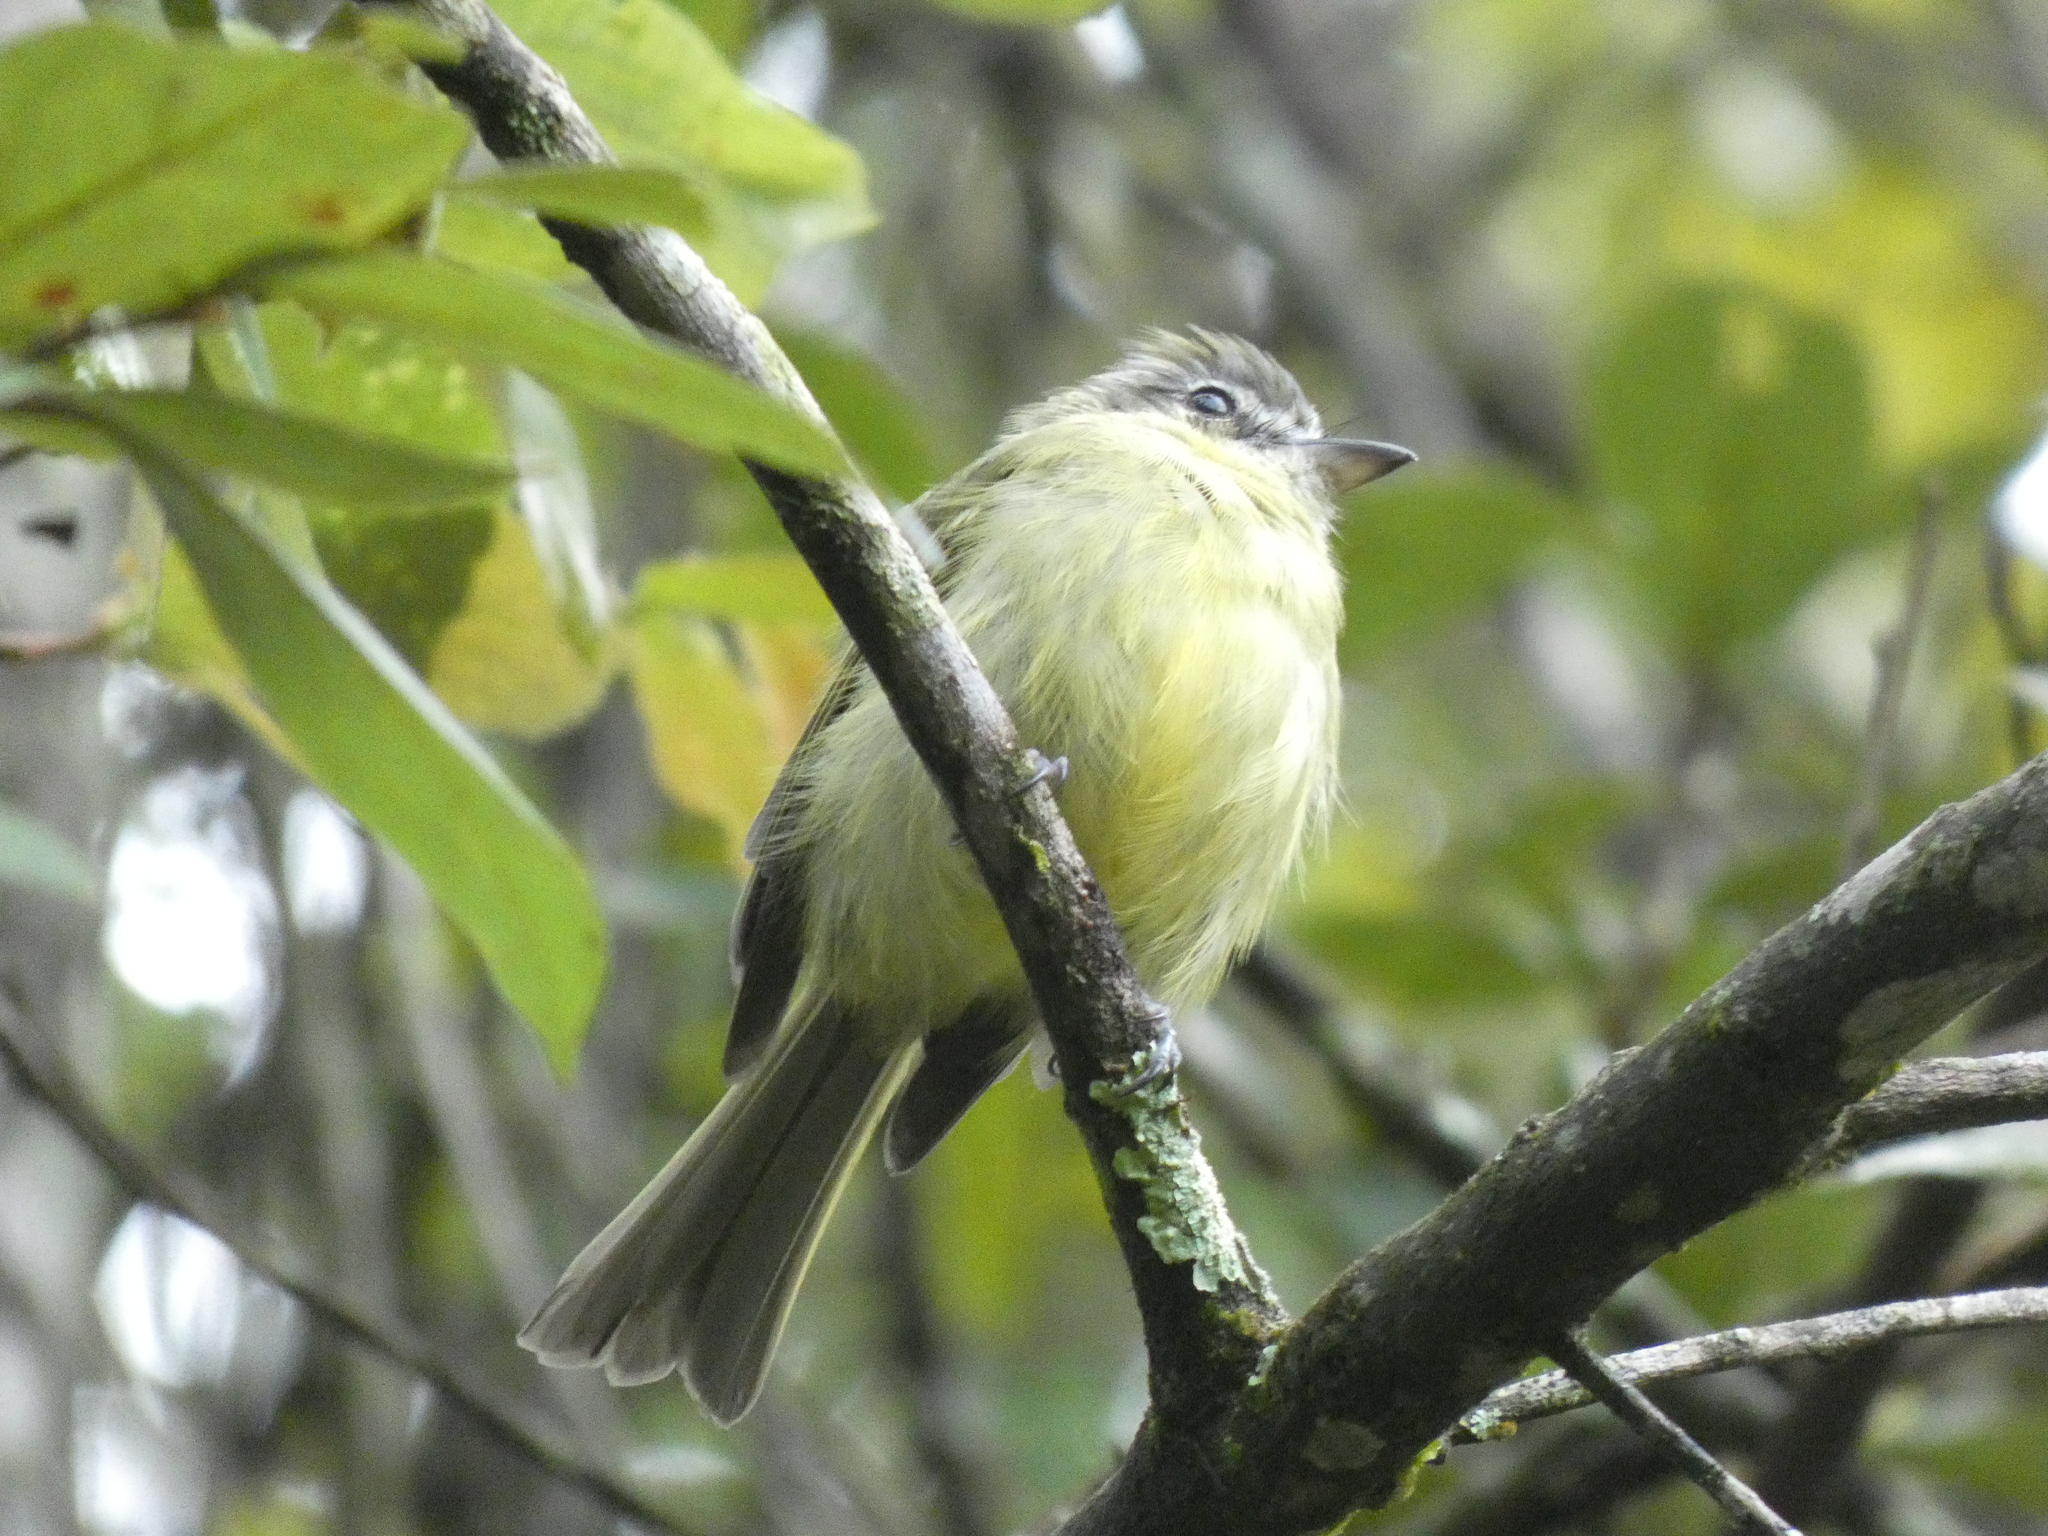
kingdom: Animalia
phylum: Chordata
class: Aves
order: Passeriformes
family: Tyrannidae
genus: Tolmomyias
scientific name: Tolmomyias sulphurescens
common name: Yellow-olive flycatcher
